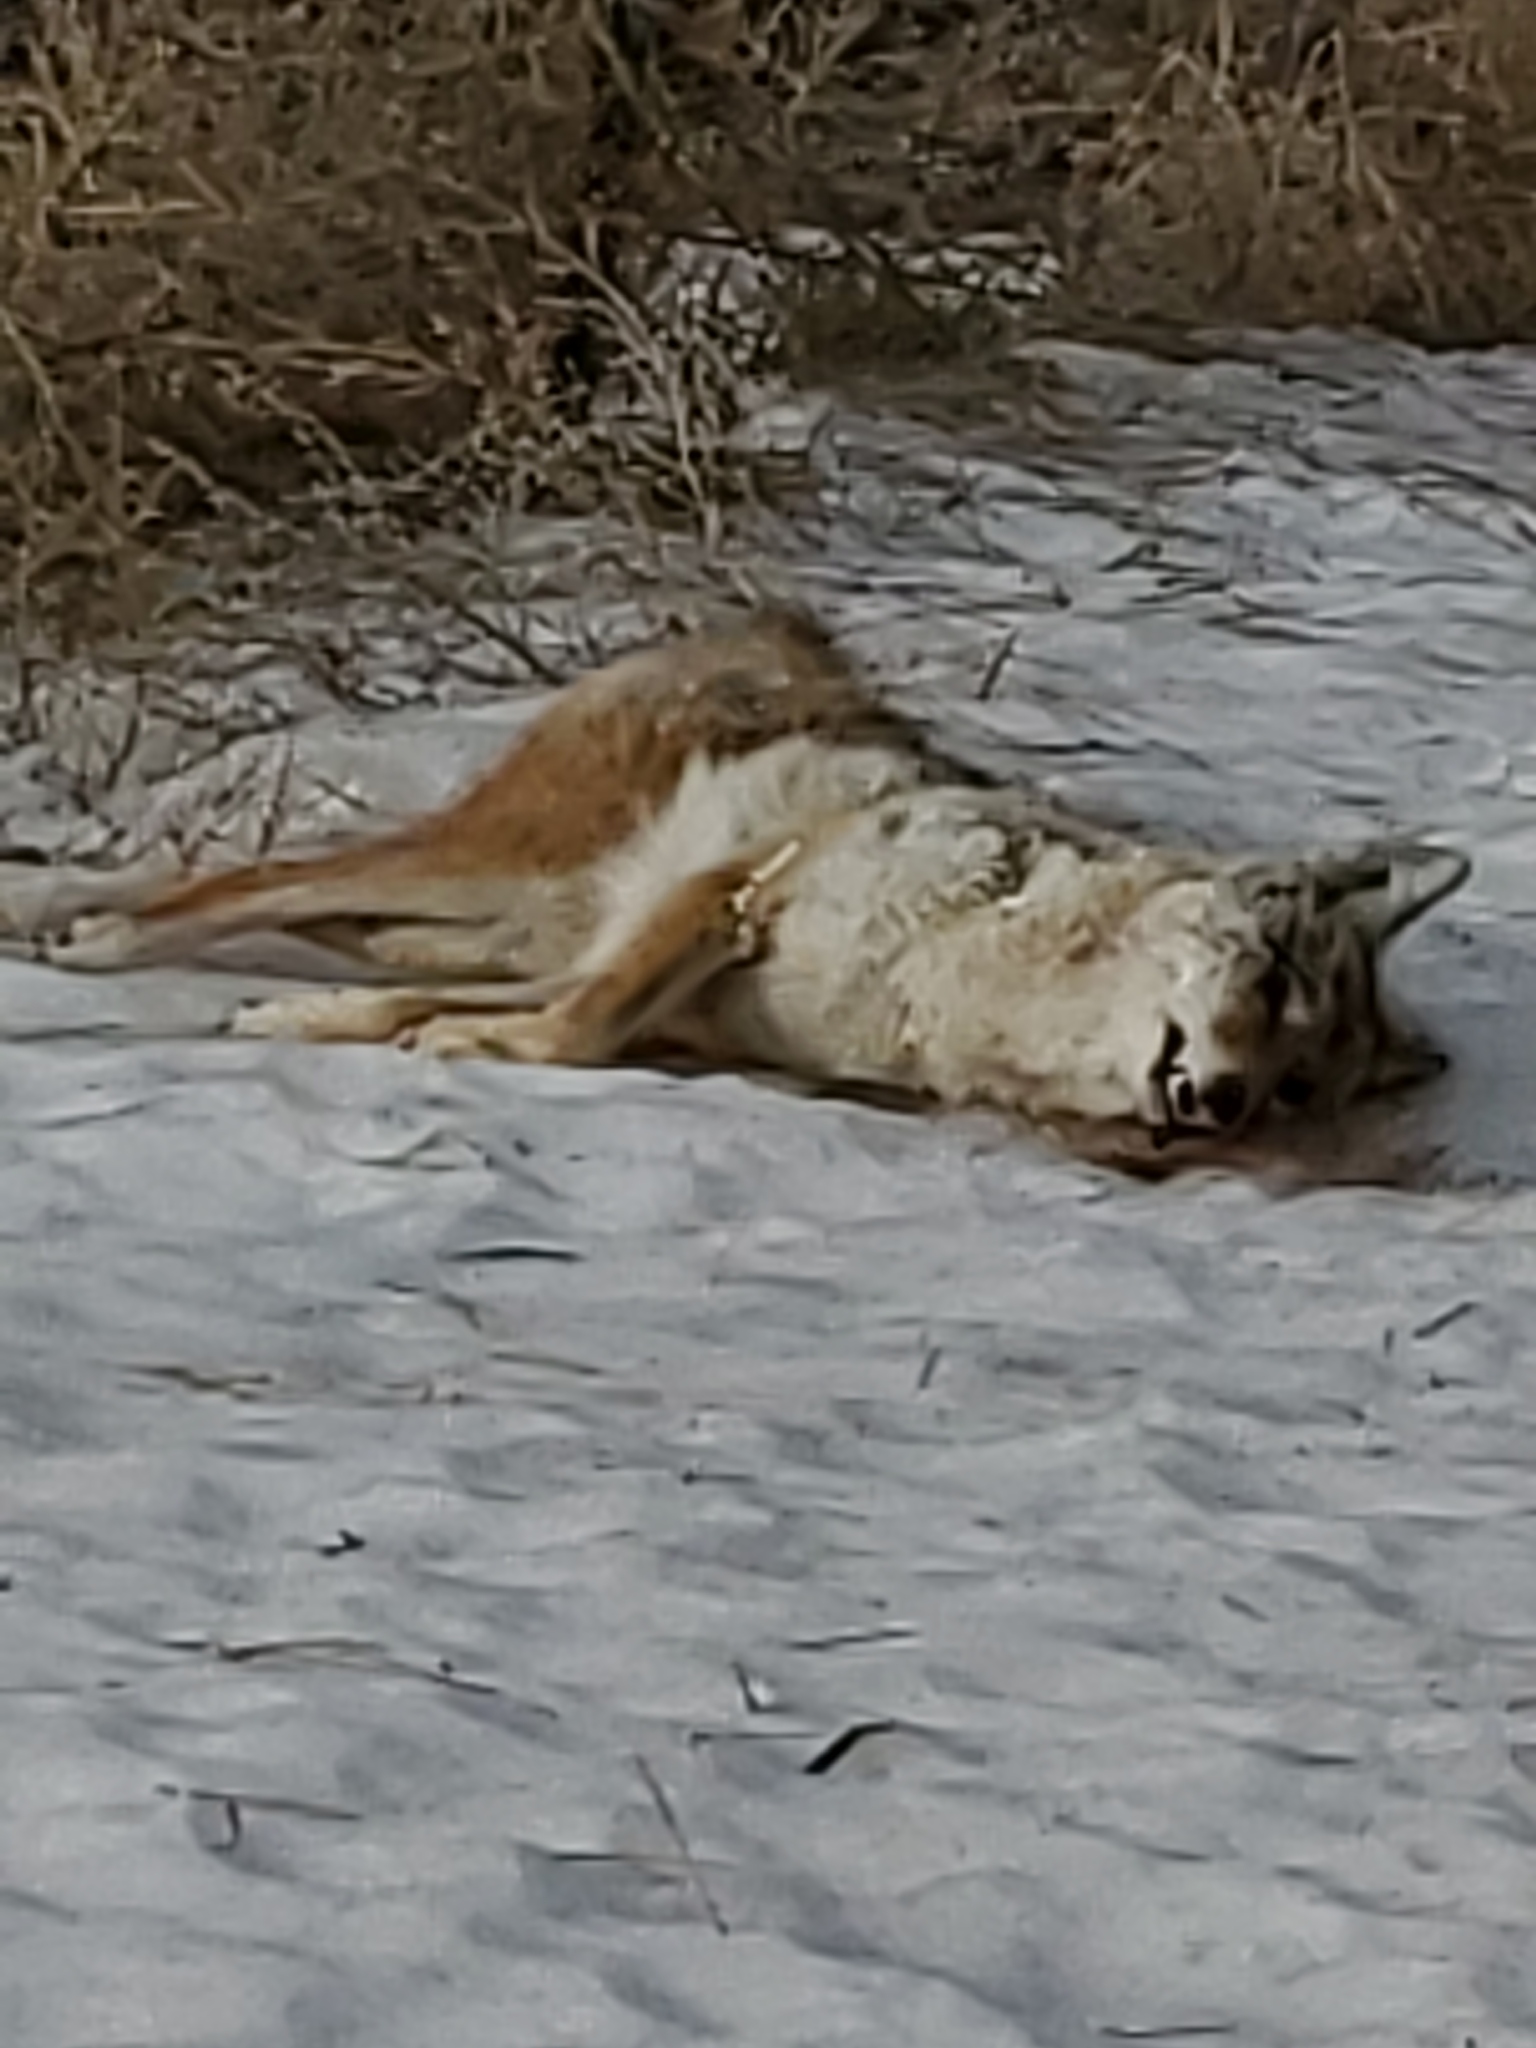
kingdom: Animalia
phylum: Chordata
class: Mammalia
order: Carnivora
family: Canidae
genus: Canis
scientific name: Canis latrans
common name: Coyote
